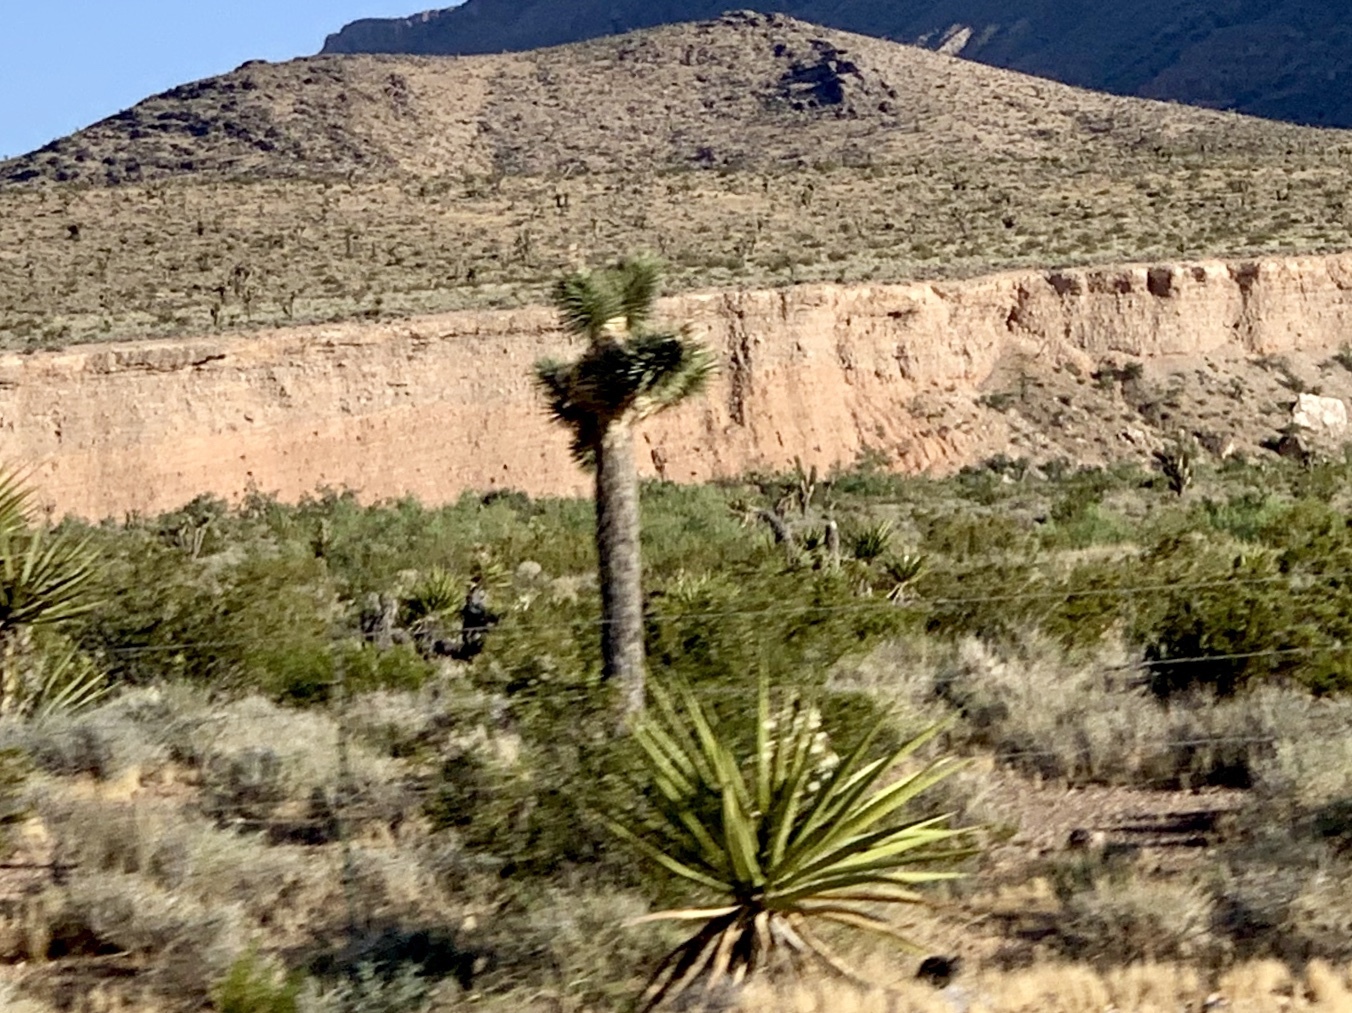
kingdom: Plantae
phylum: Tracheophyta
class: Liliopsida
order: Asparagales
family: Asparagaceae
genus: Yucca
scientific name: Yucca brevifolia
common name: Joshua tree
